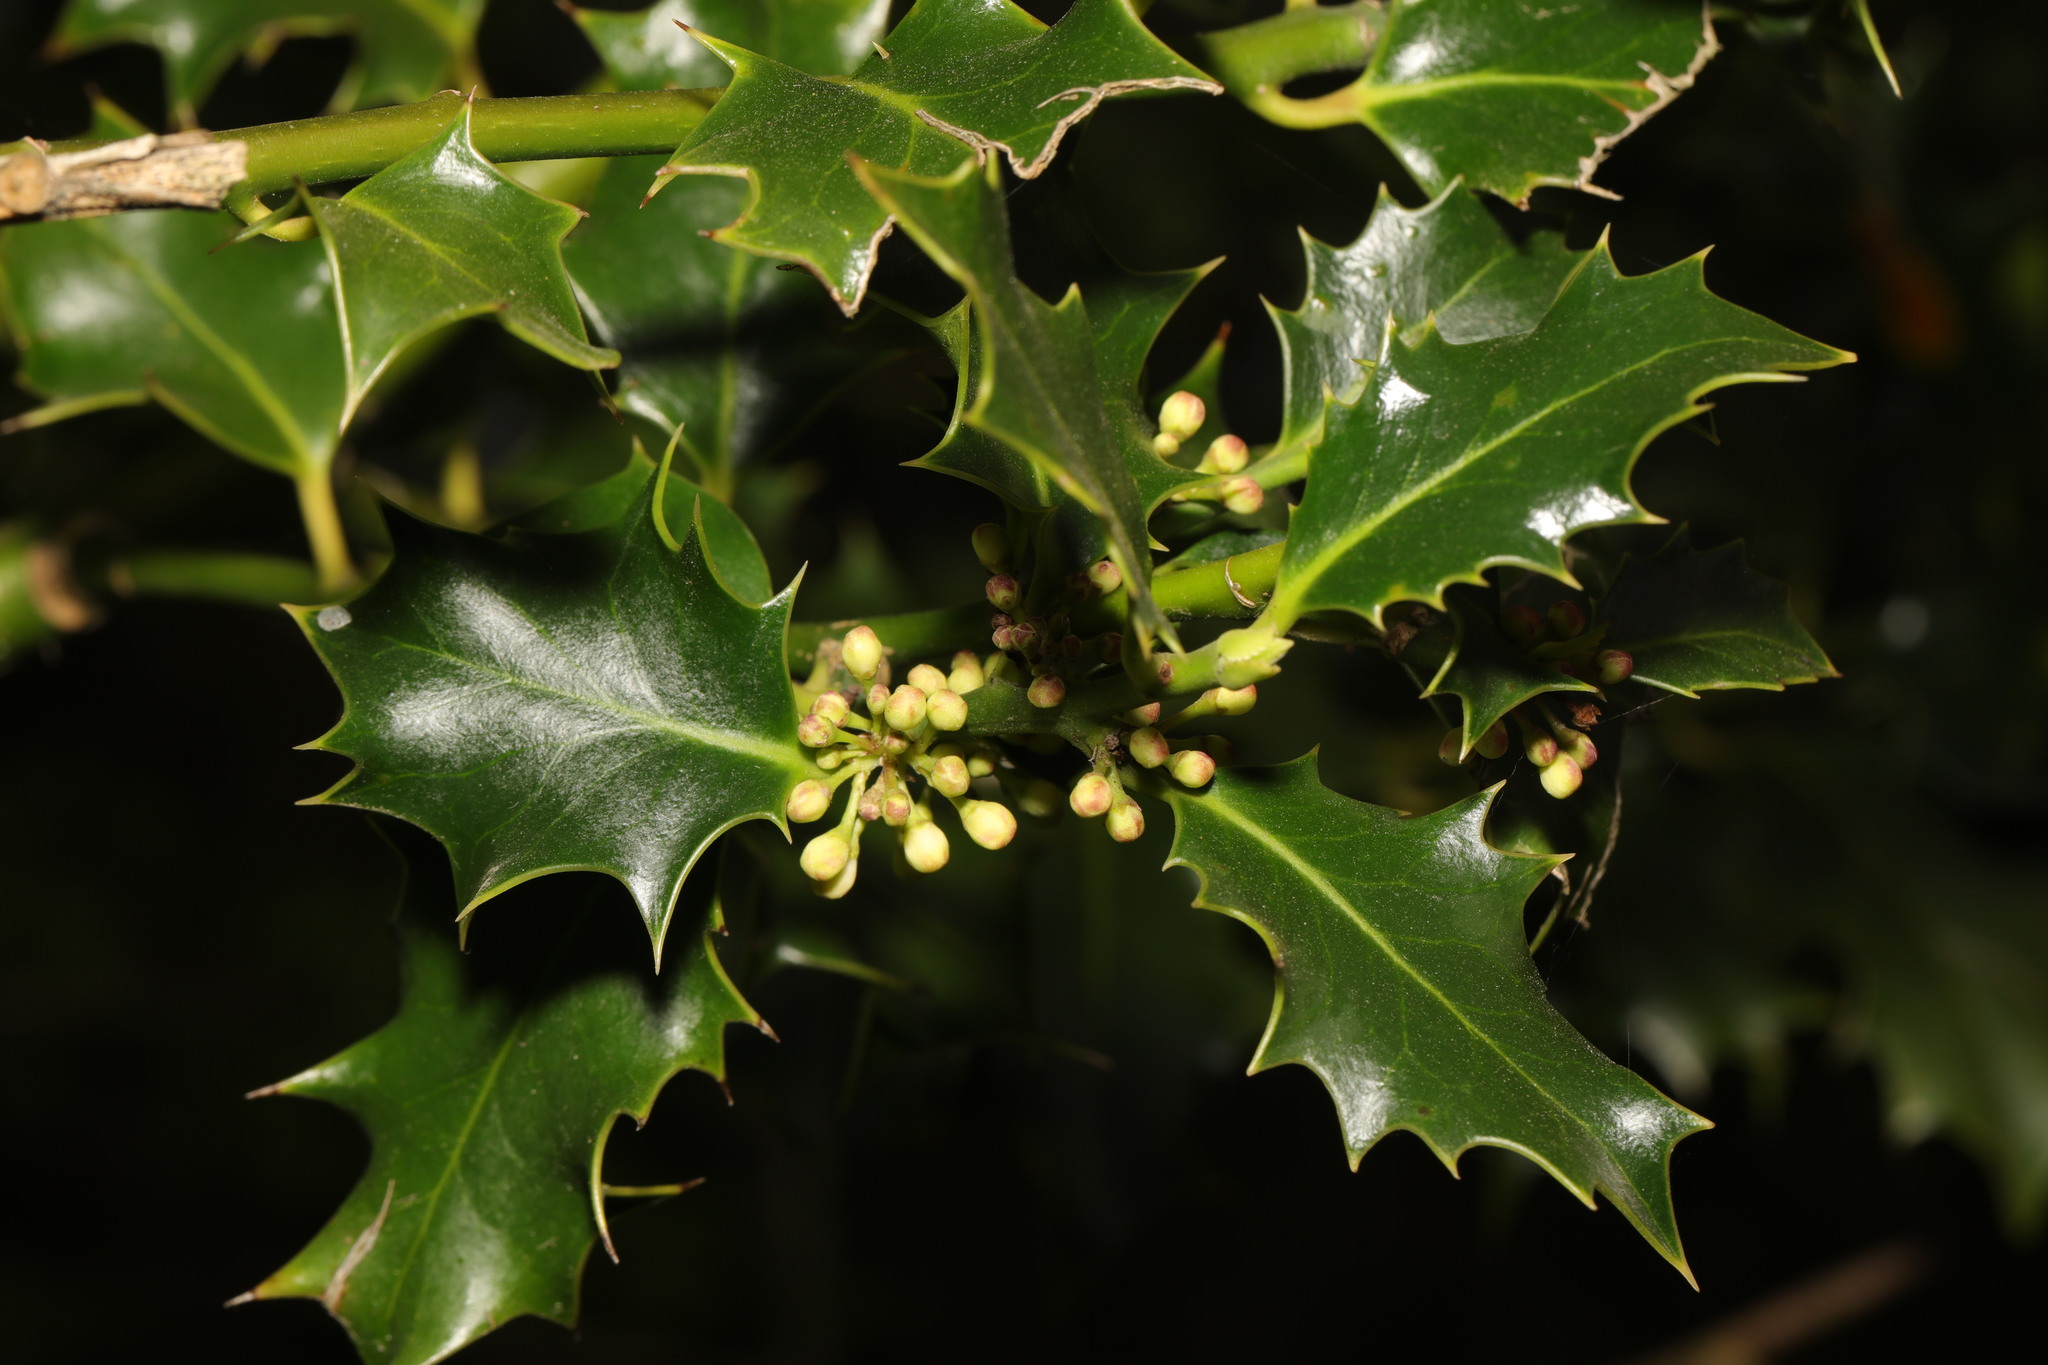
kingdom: Plantae
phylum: Tracheophyta
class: Magnoliopsida
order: Aquifoliales
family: Aquifoliaceae
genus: Ilex
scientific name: Ilex aquifolium
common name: English holly
